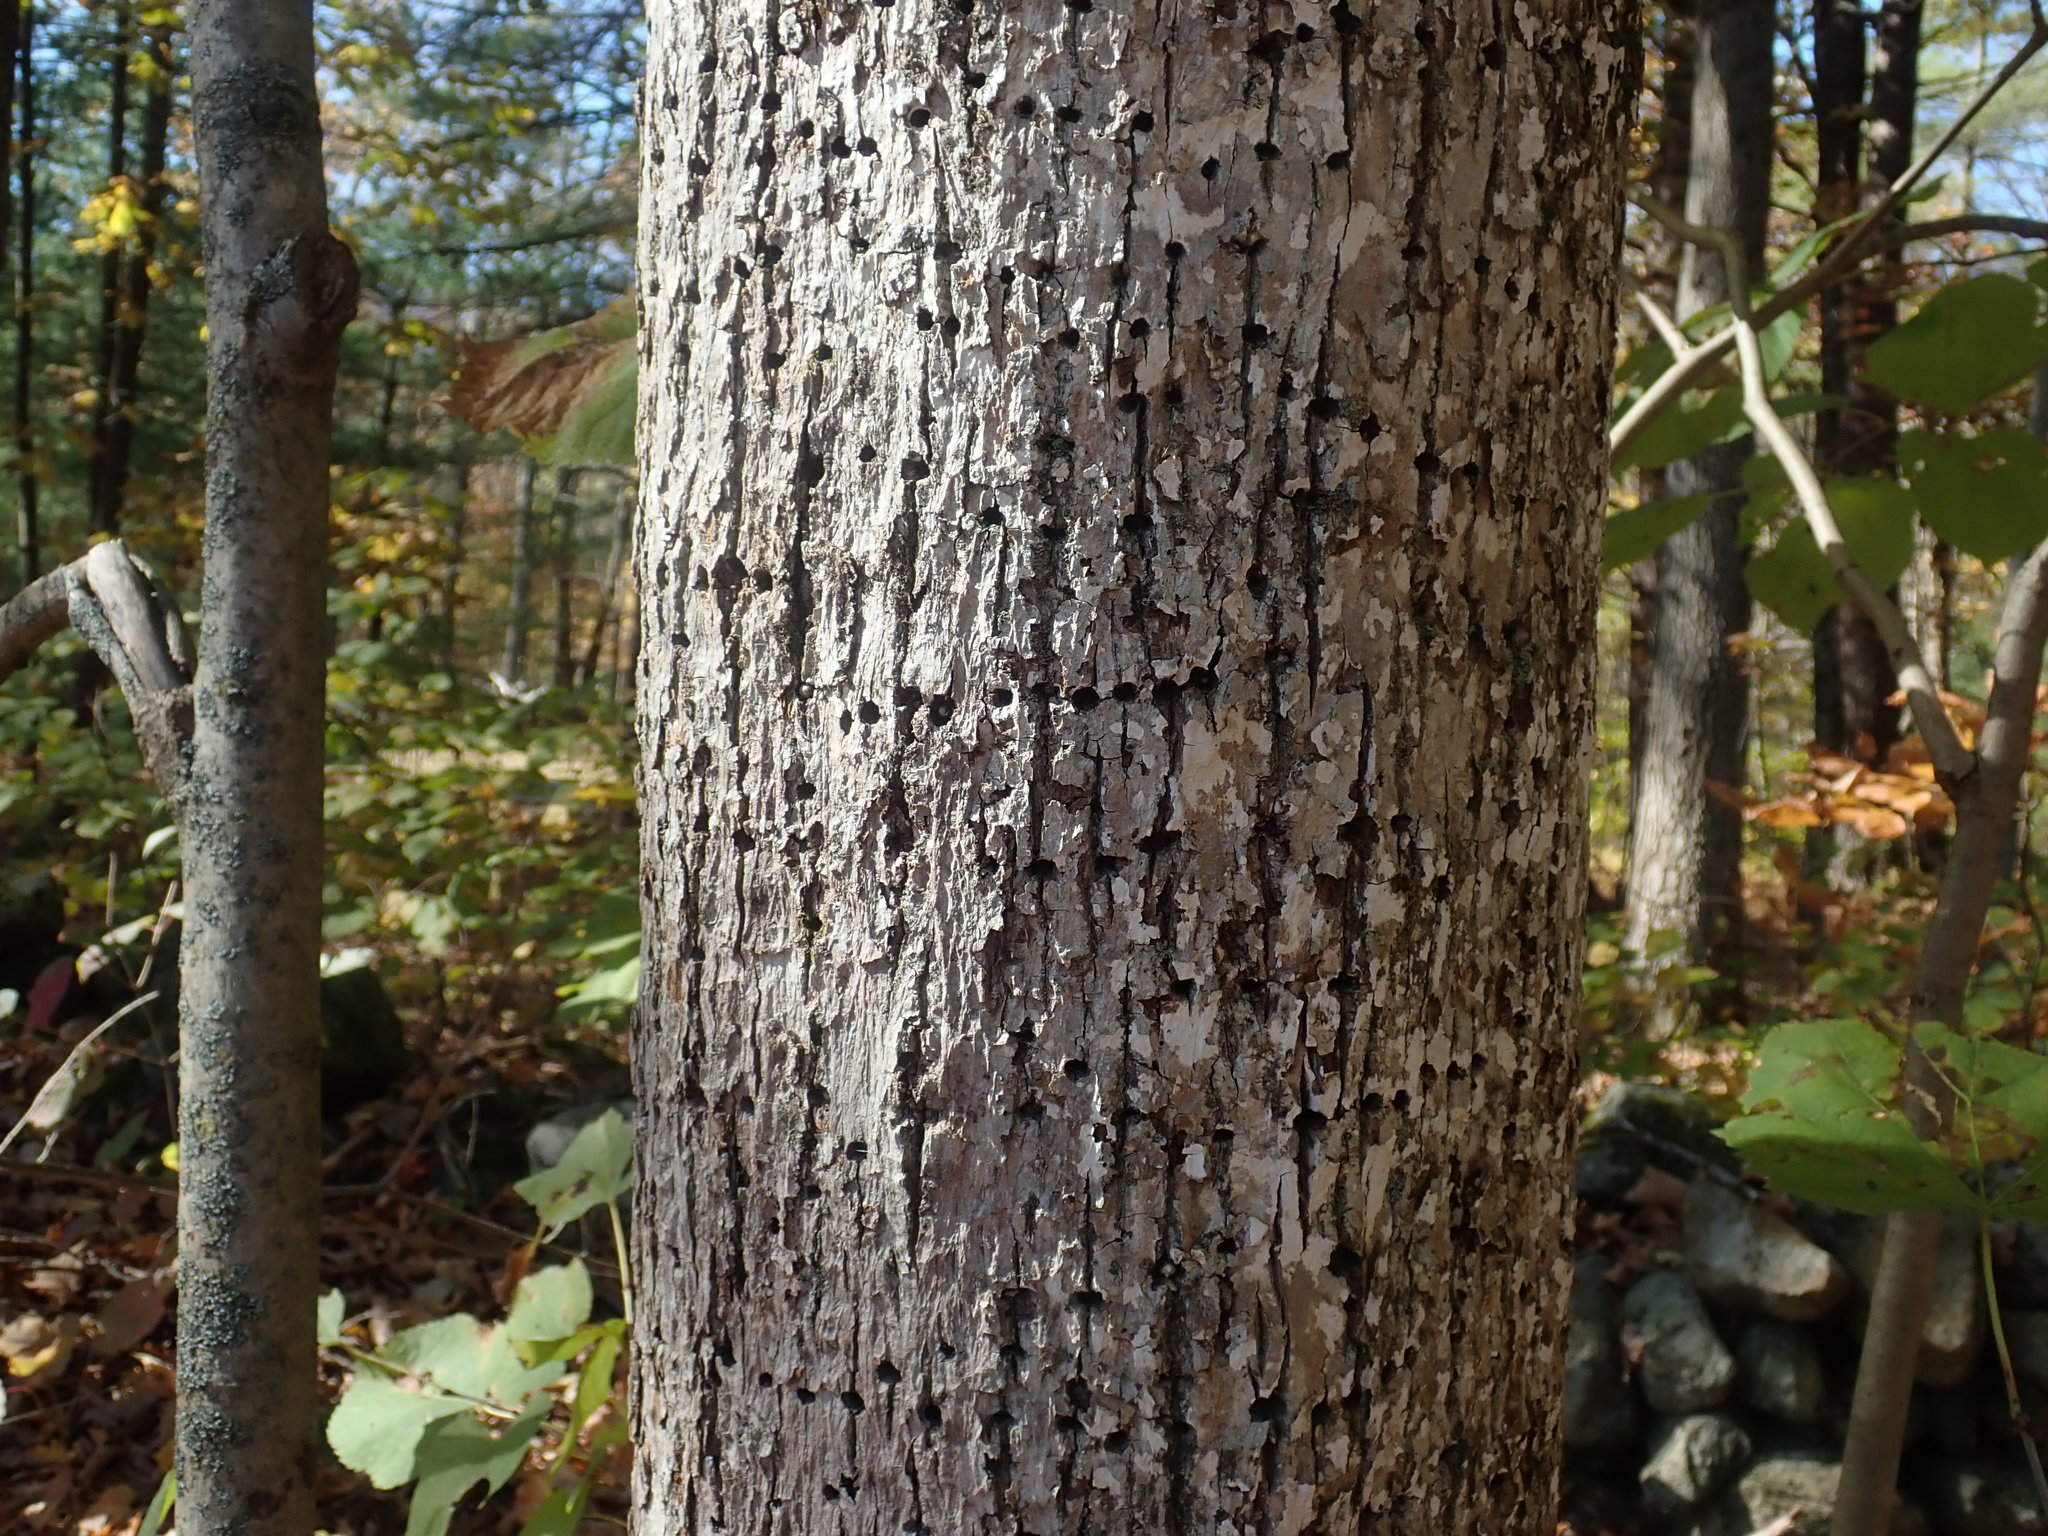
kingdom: Animalia
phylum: Chordata
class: Aves
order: Piciformes
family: Picidae
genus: Sphyrapicus
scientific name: Sphyrapicus varius
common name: Yellow-bellied sapsucker
